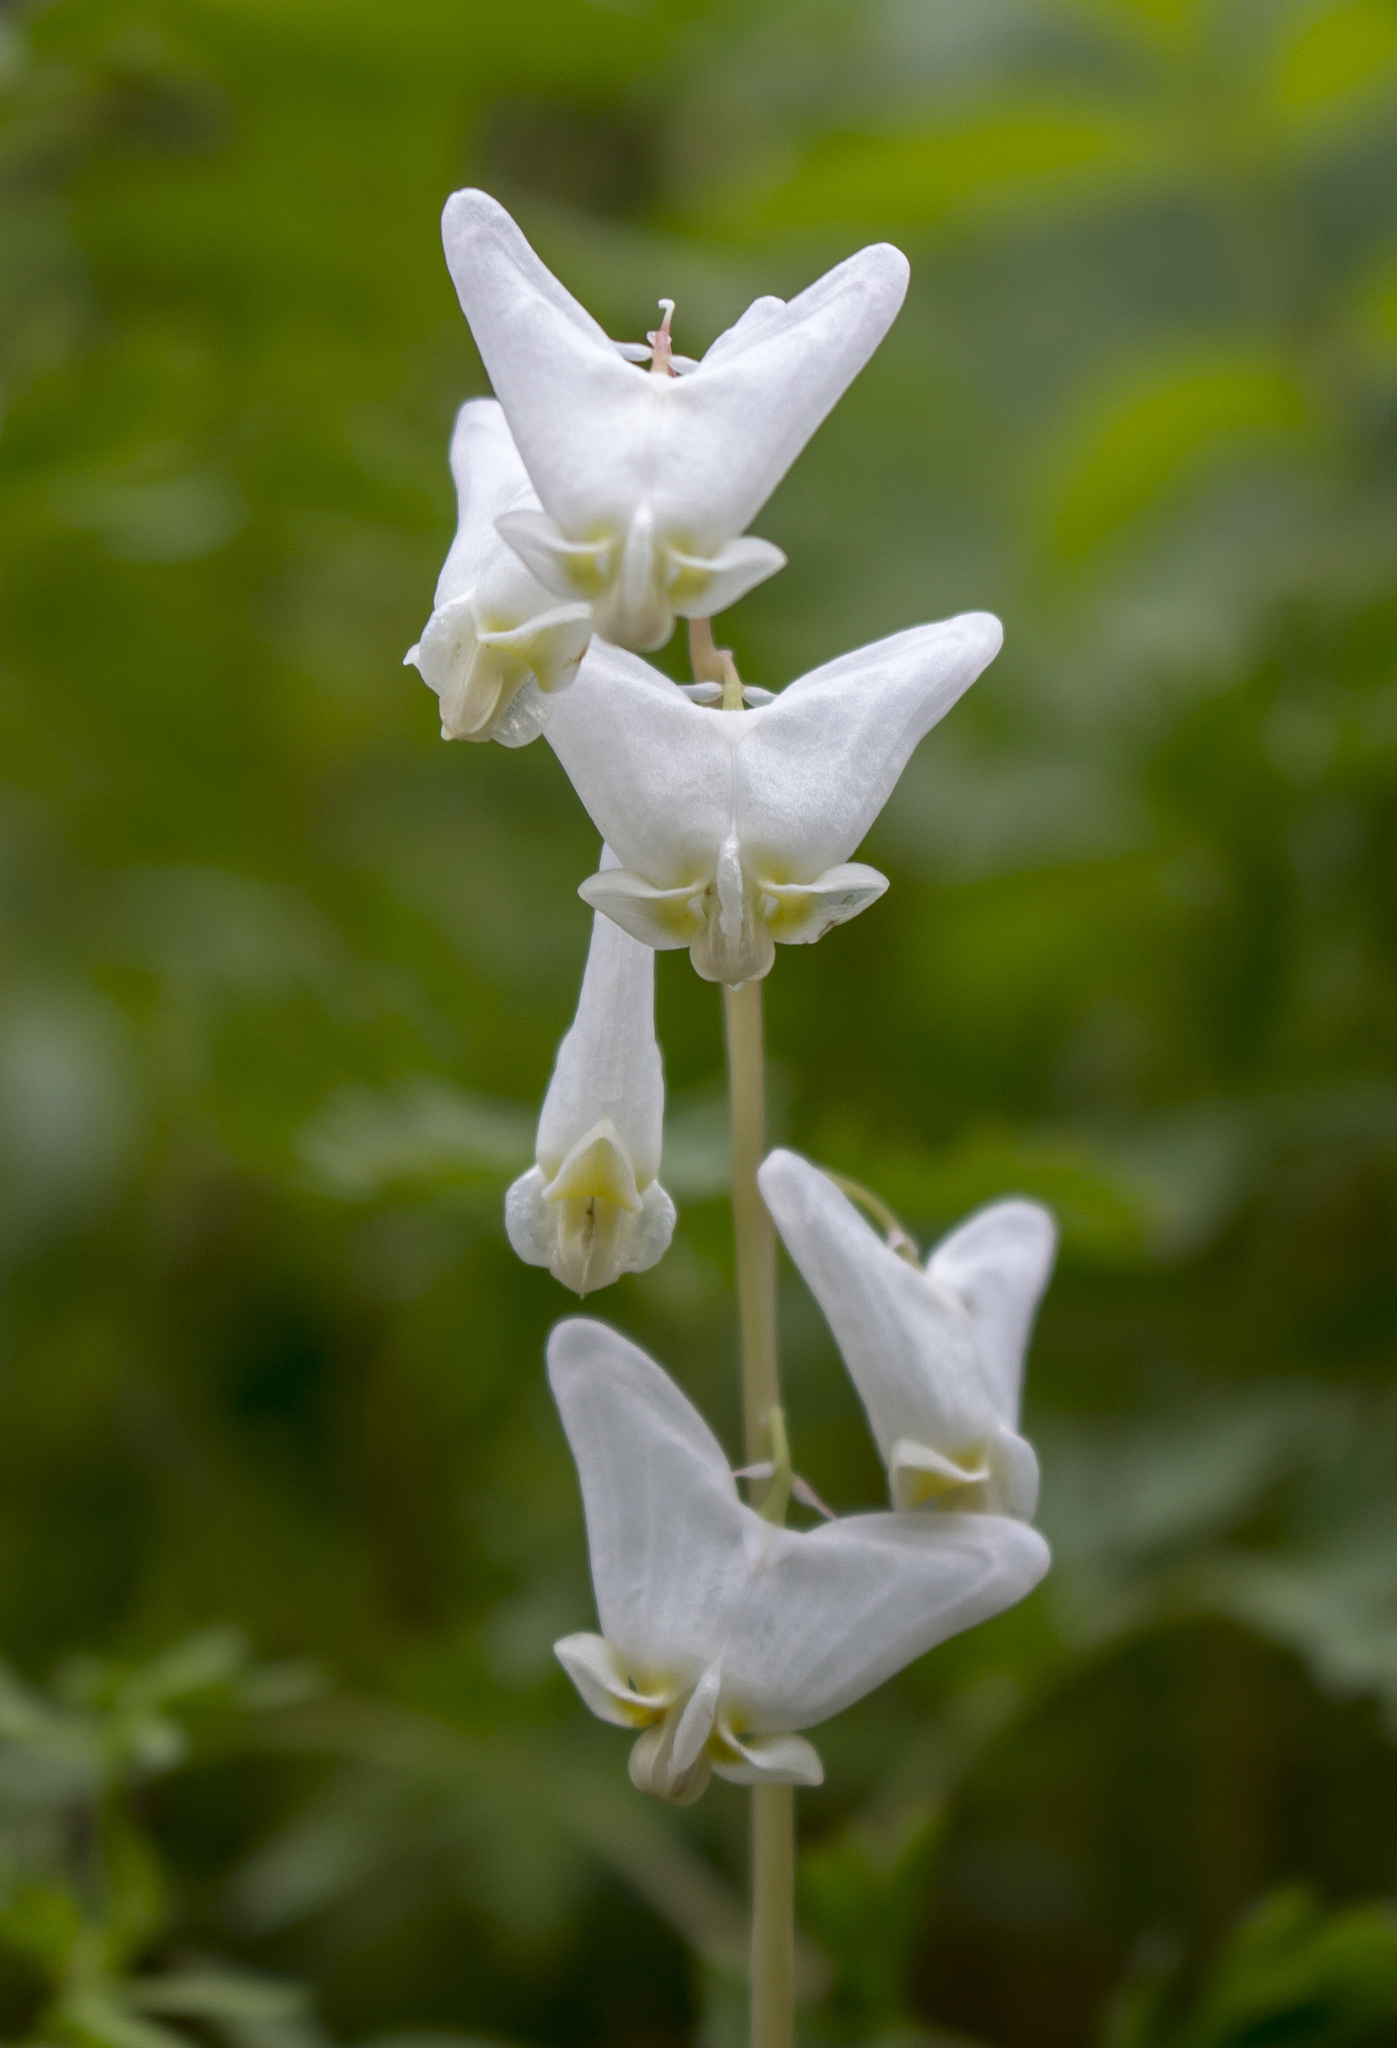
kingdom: Plantae
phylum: Tracheophyta
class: Magnoliopsida
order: Ranunculales
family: Papaveraceae
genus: Dicentra
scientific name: Dicentra cucullaria
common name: Dutchman's breeches
